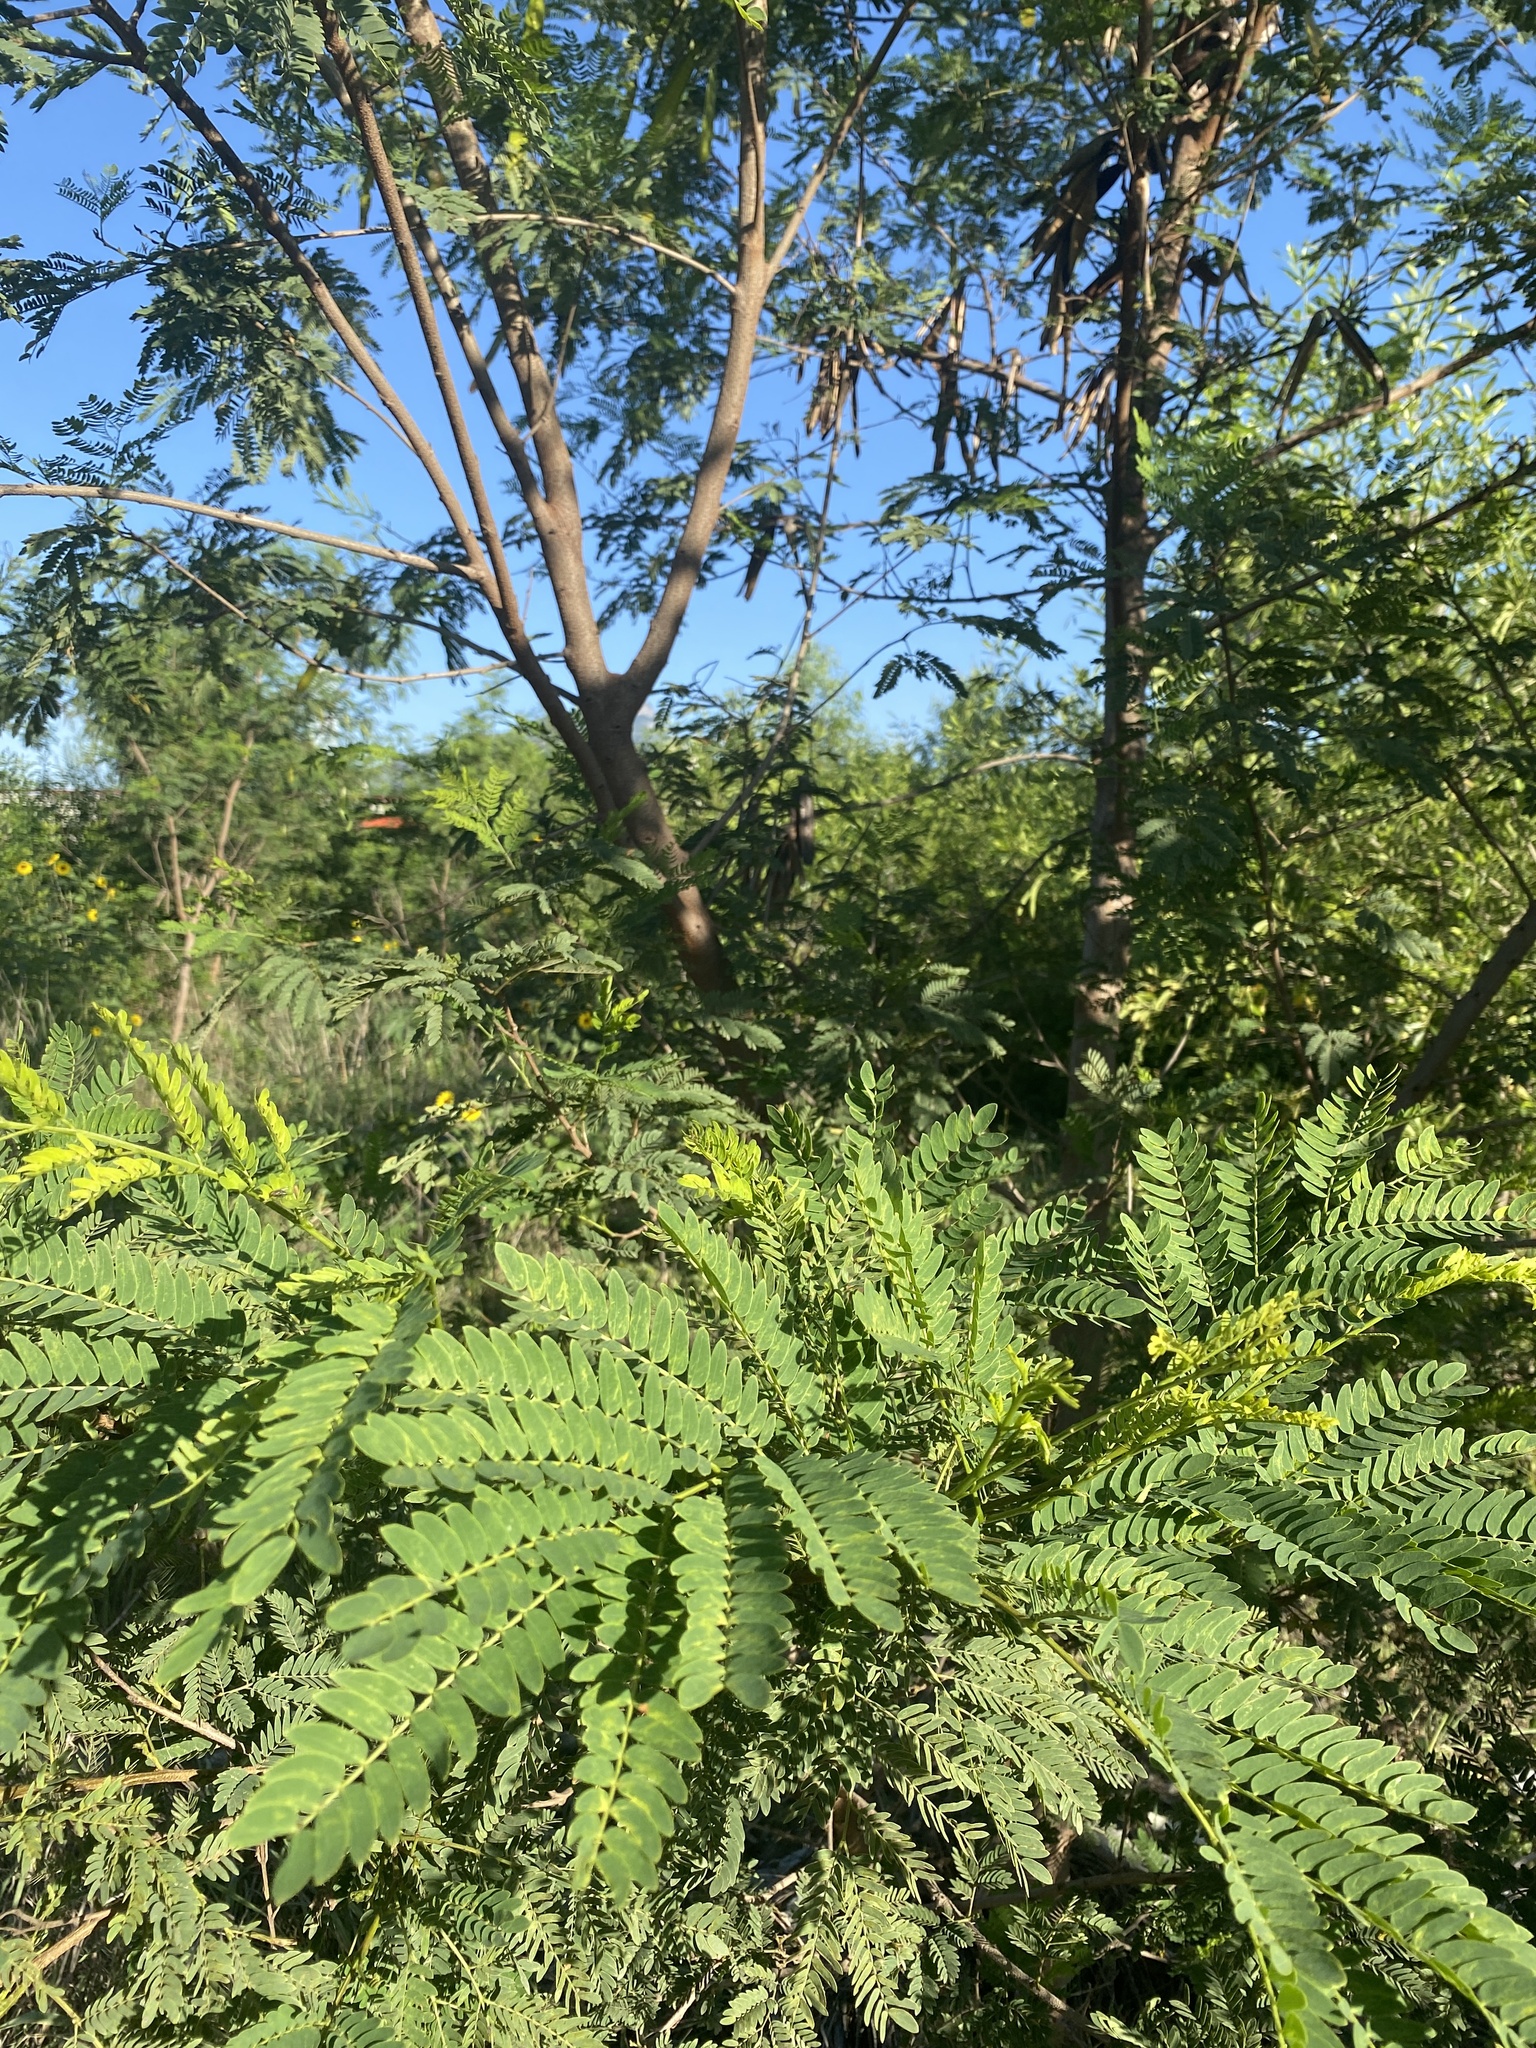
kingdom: Plantae
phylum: Tracheophyta
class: Magnoliopsida
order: Fabales
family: Fabaceae
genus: Leucaena
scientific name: Leucaena leucocephala
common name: White leadtree
